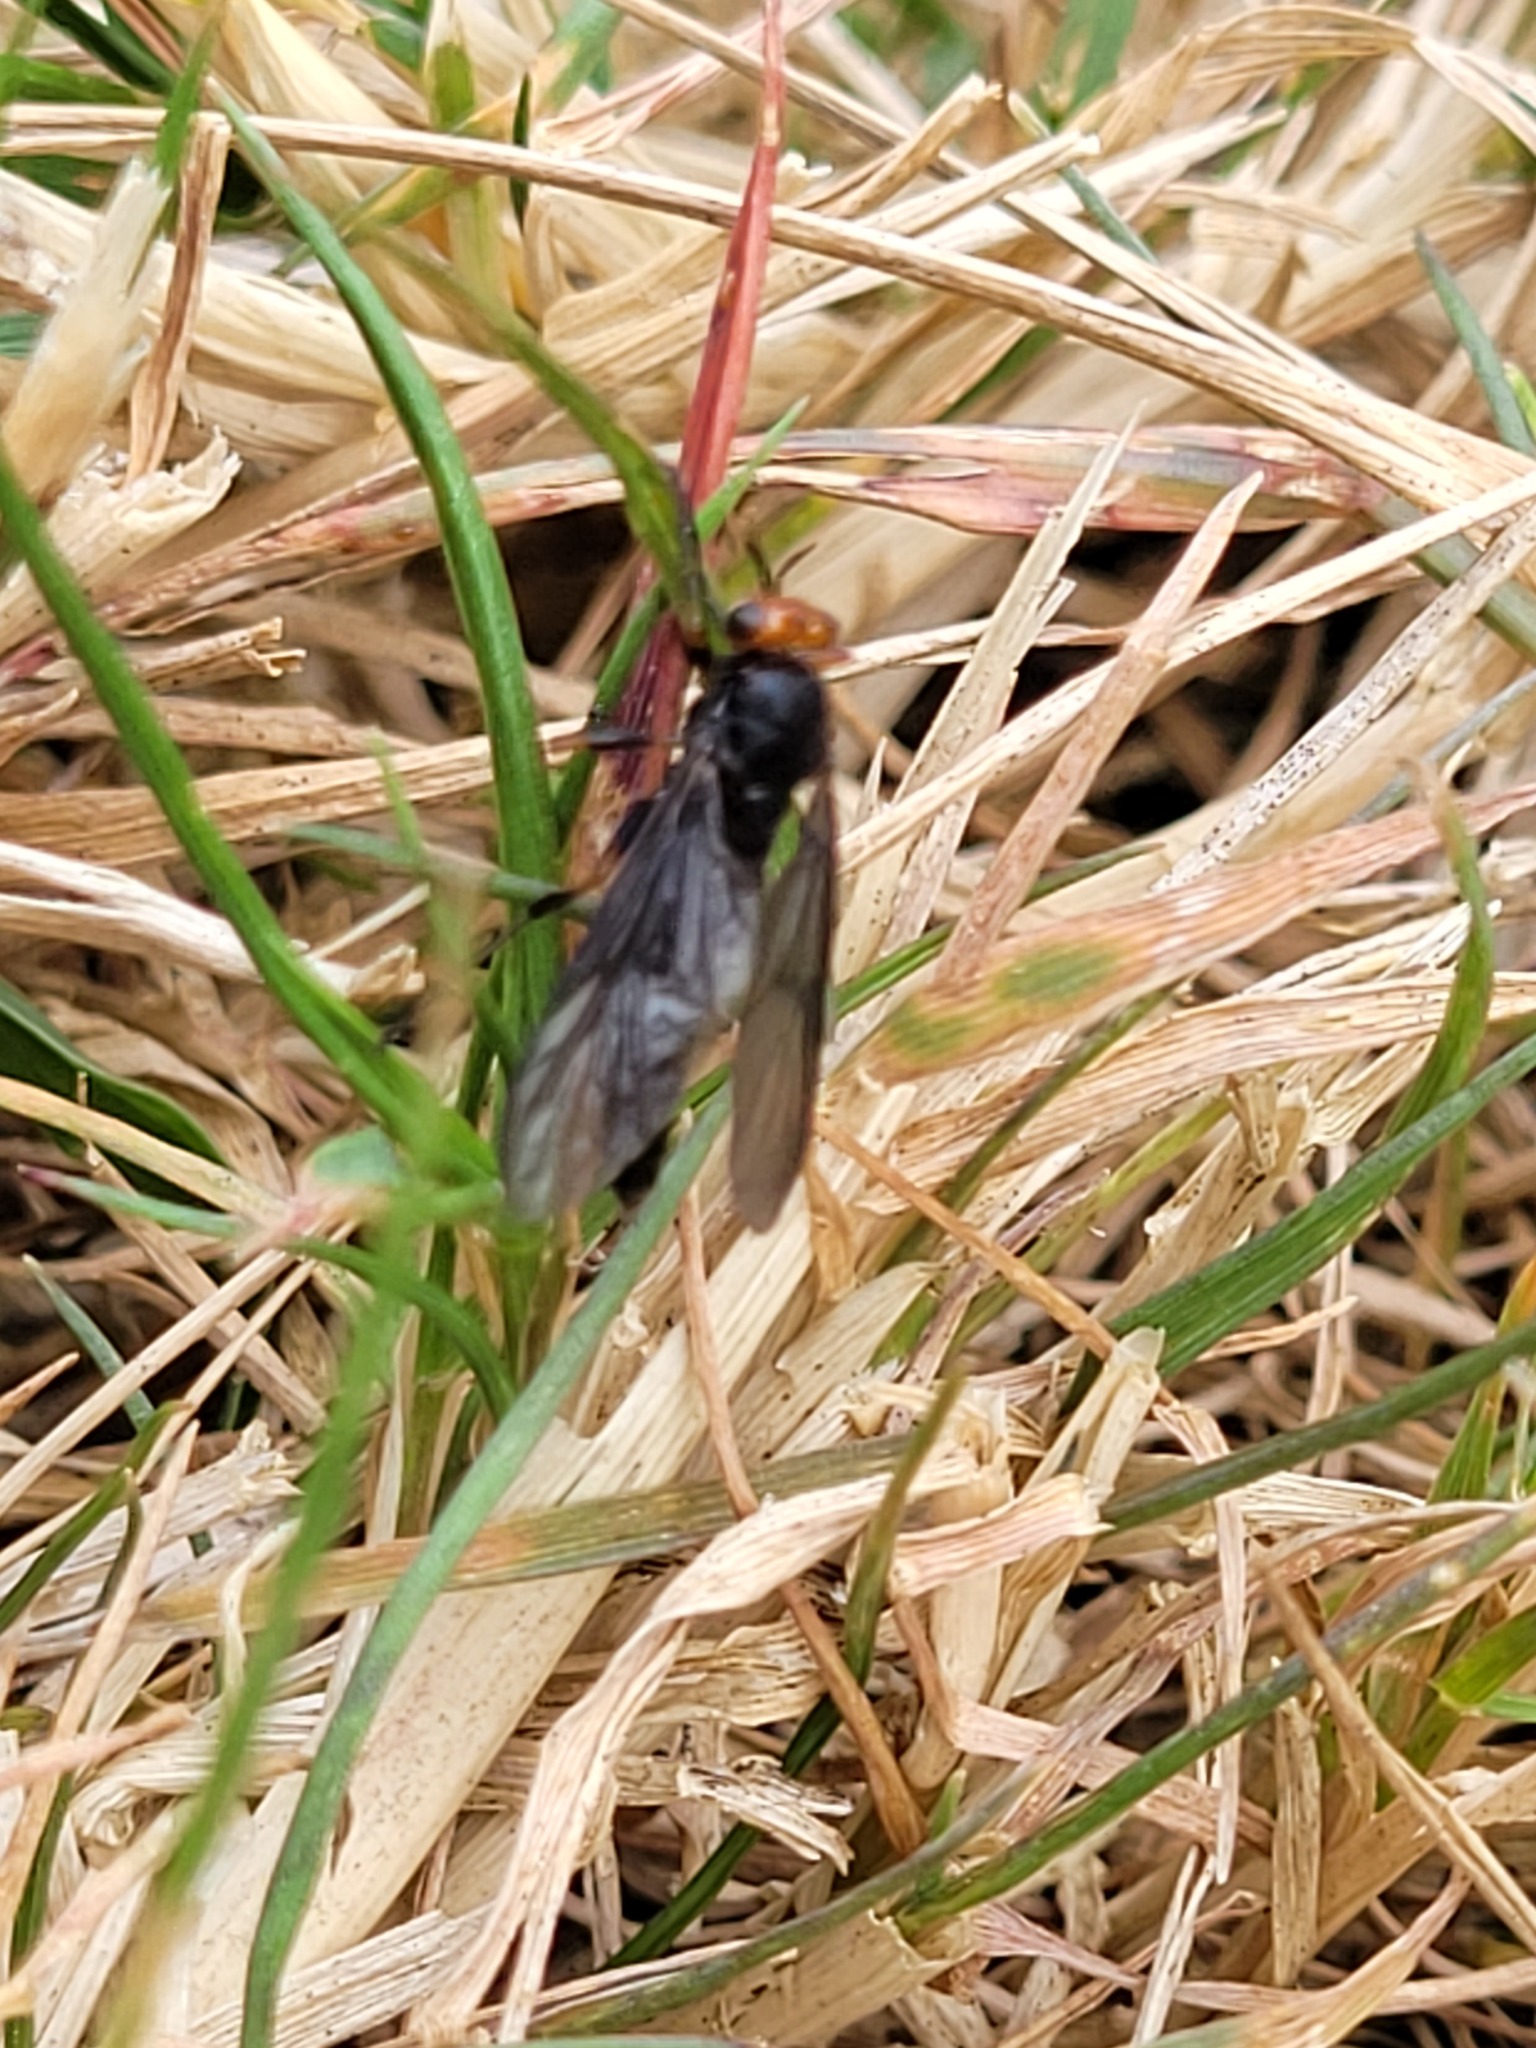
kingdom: Animalia
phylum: Arthropoda
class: Insecta
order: Diptera
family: Stratiomyidae
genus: Inopus
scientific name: Inopus rubriceps
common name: Soldier fly
